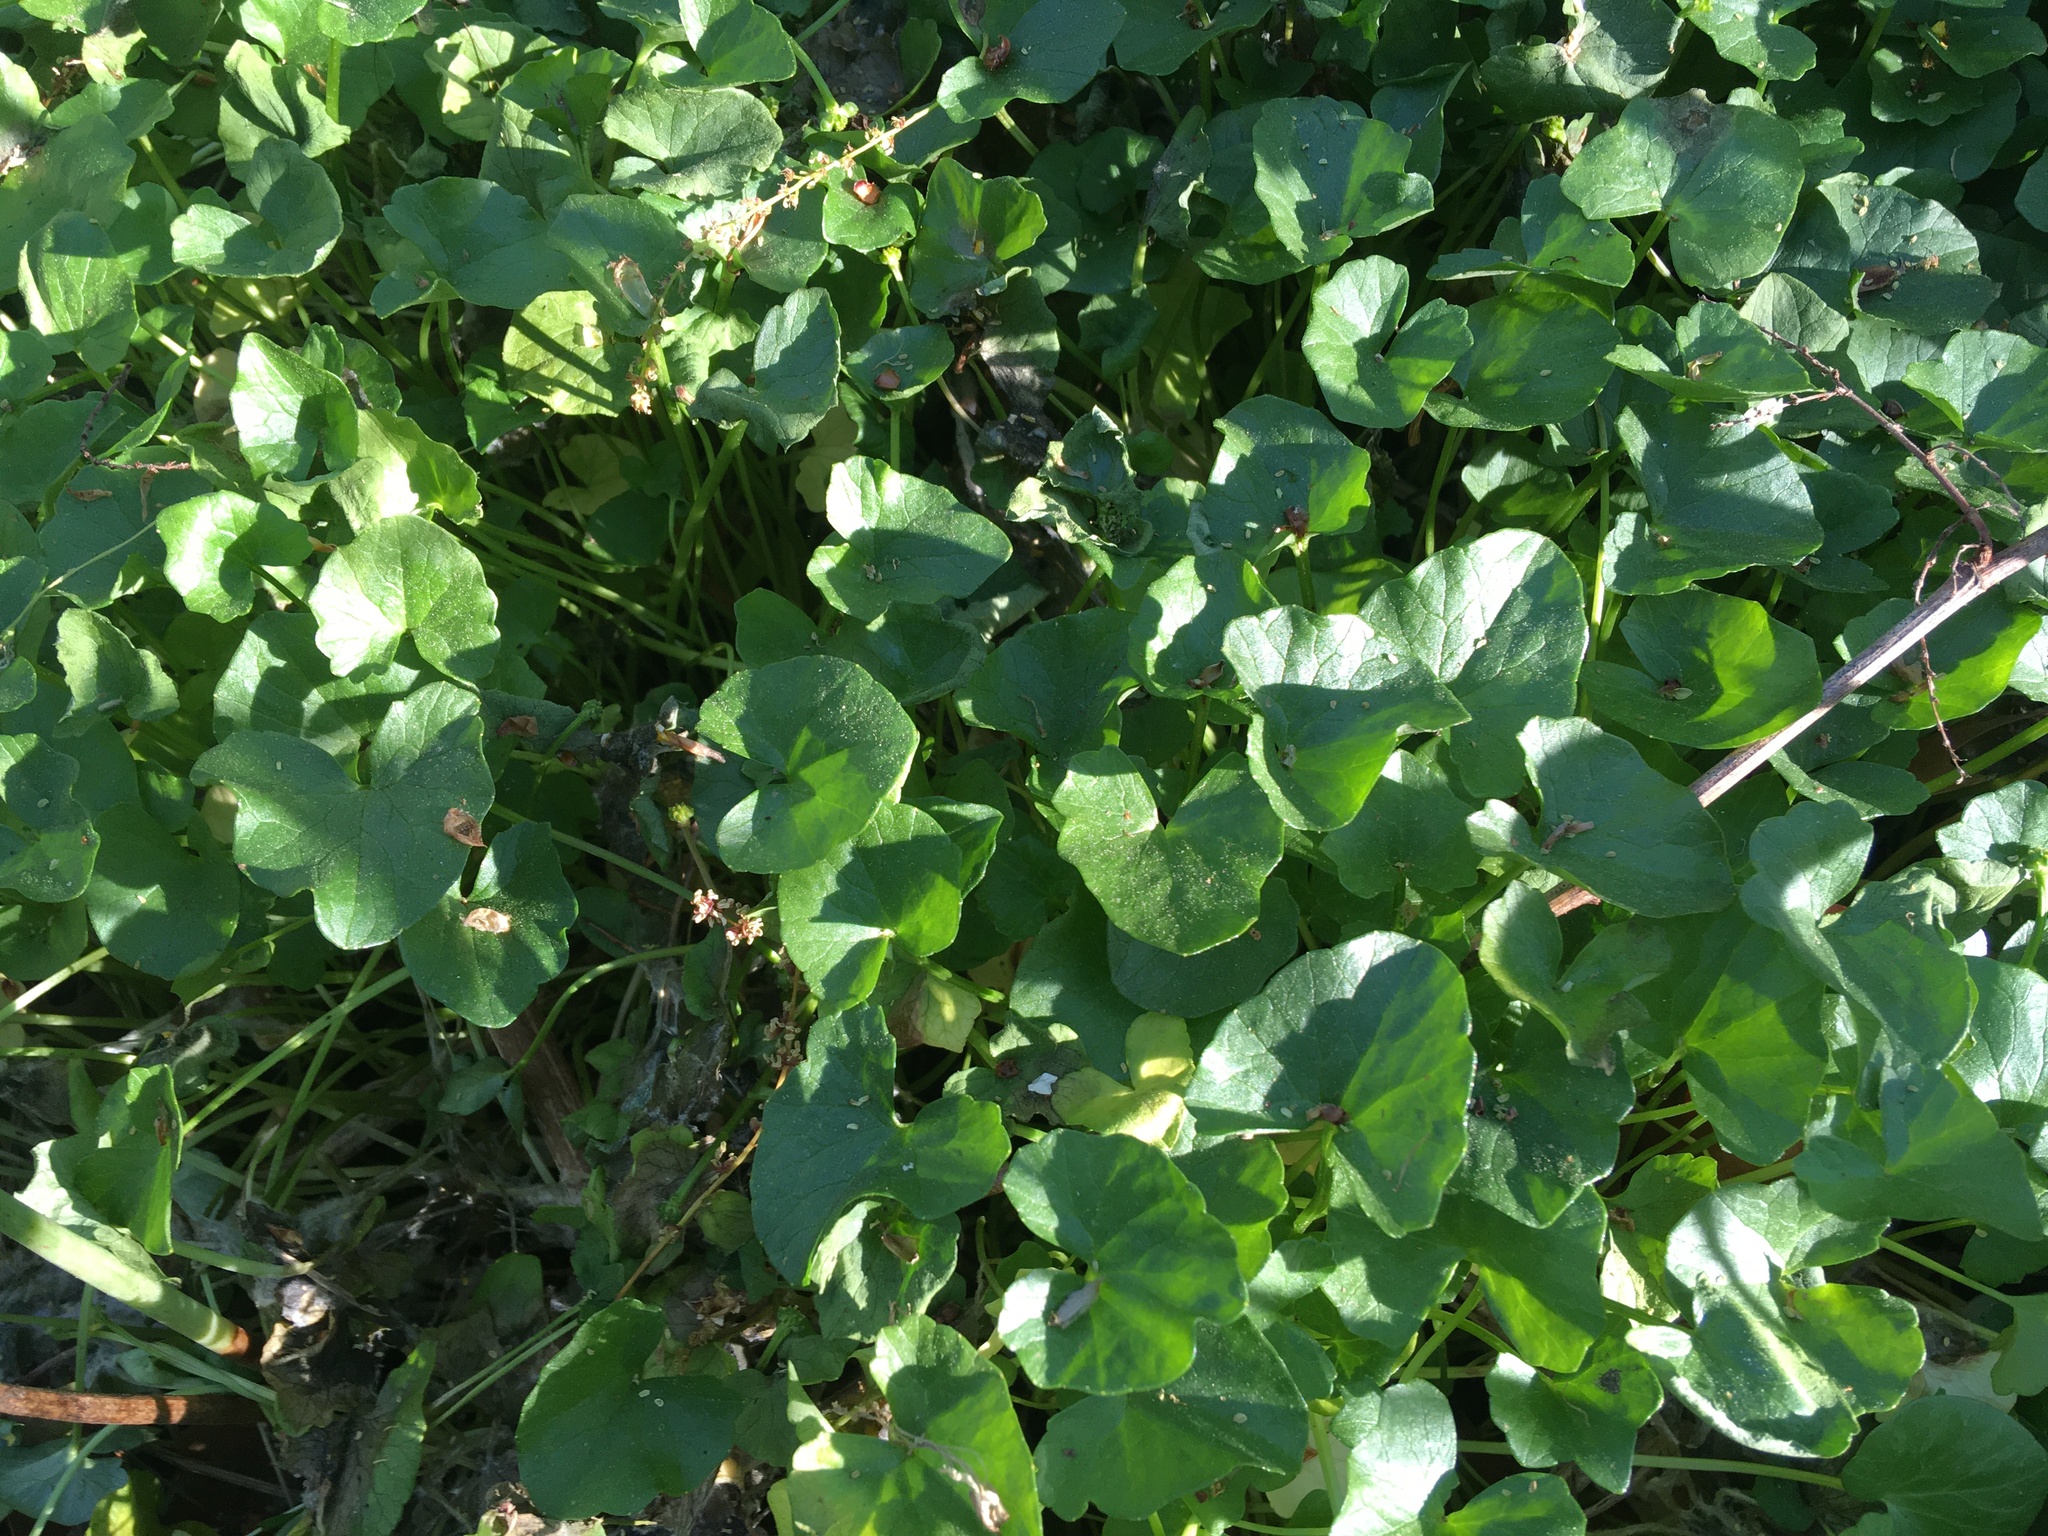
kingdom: Plantae
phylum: Tracheophyta
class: Magnoliopsida
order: Ranunculales
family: Ranunculaceae
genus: Ficaria
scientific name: Ficaria verna
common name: Lesser celandine
